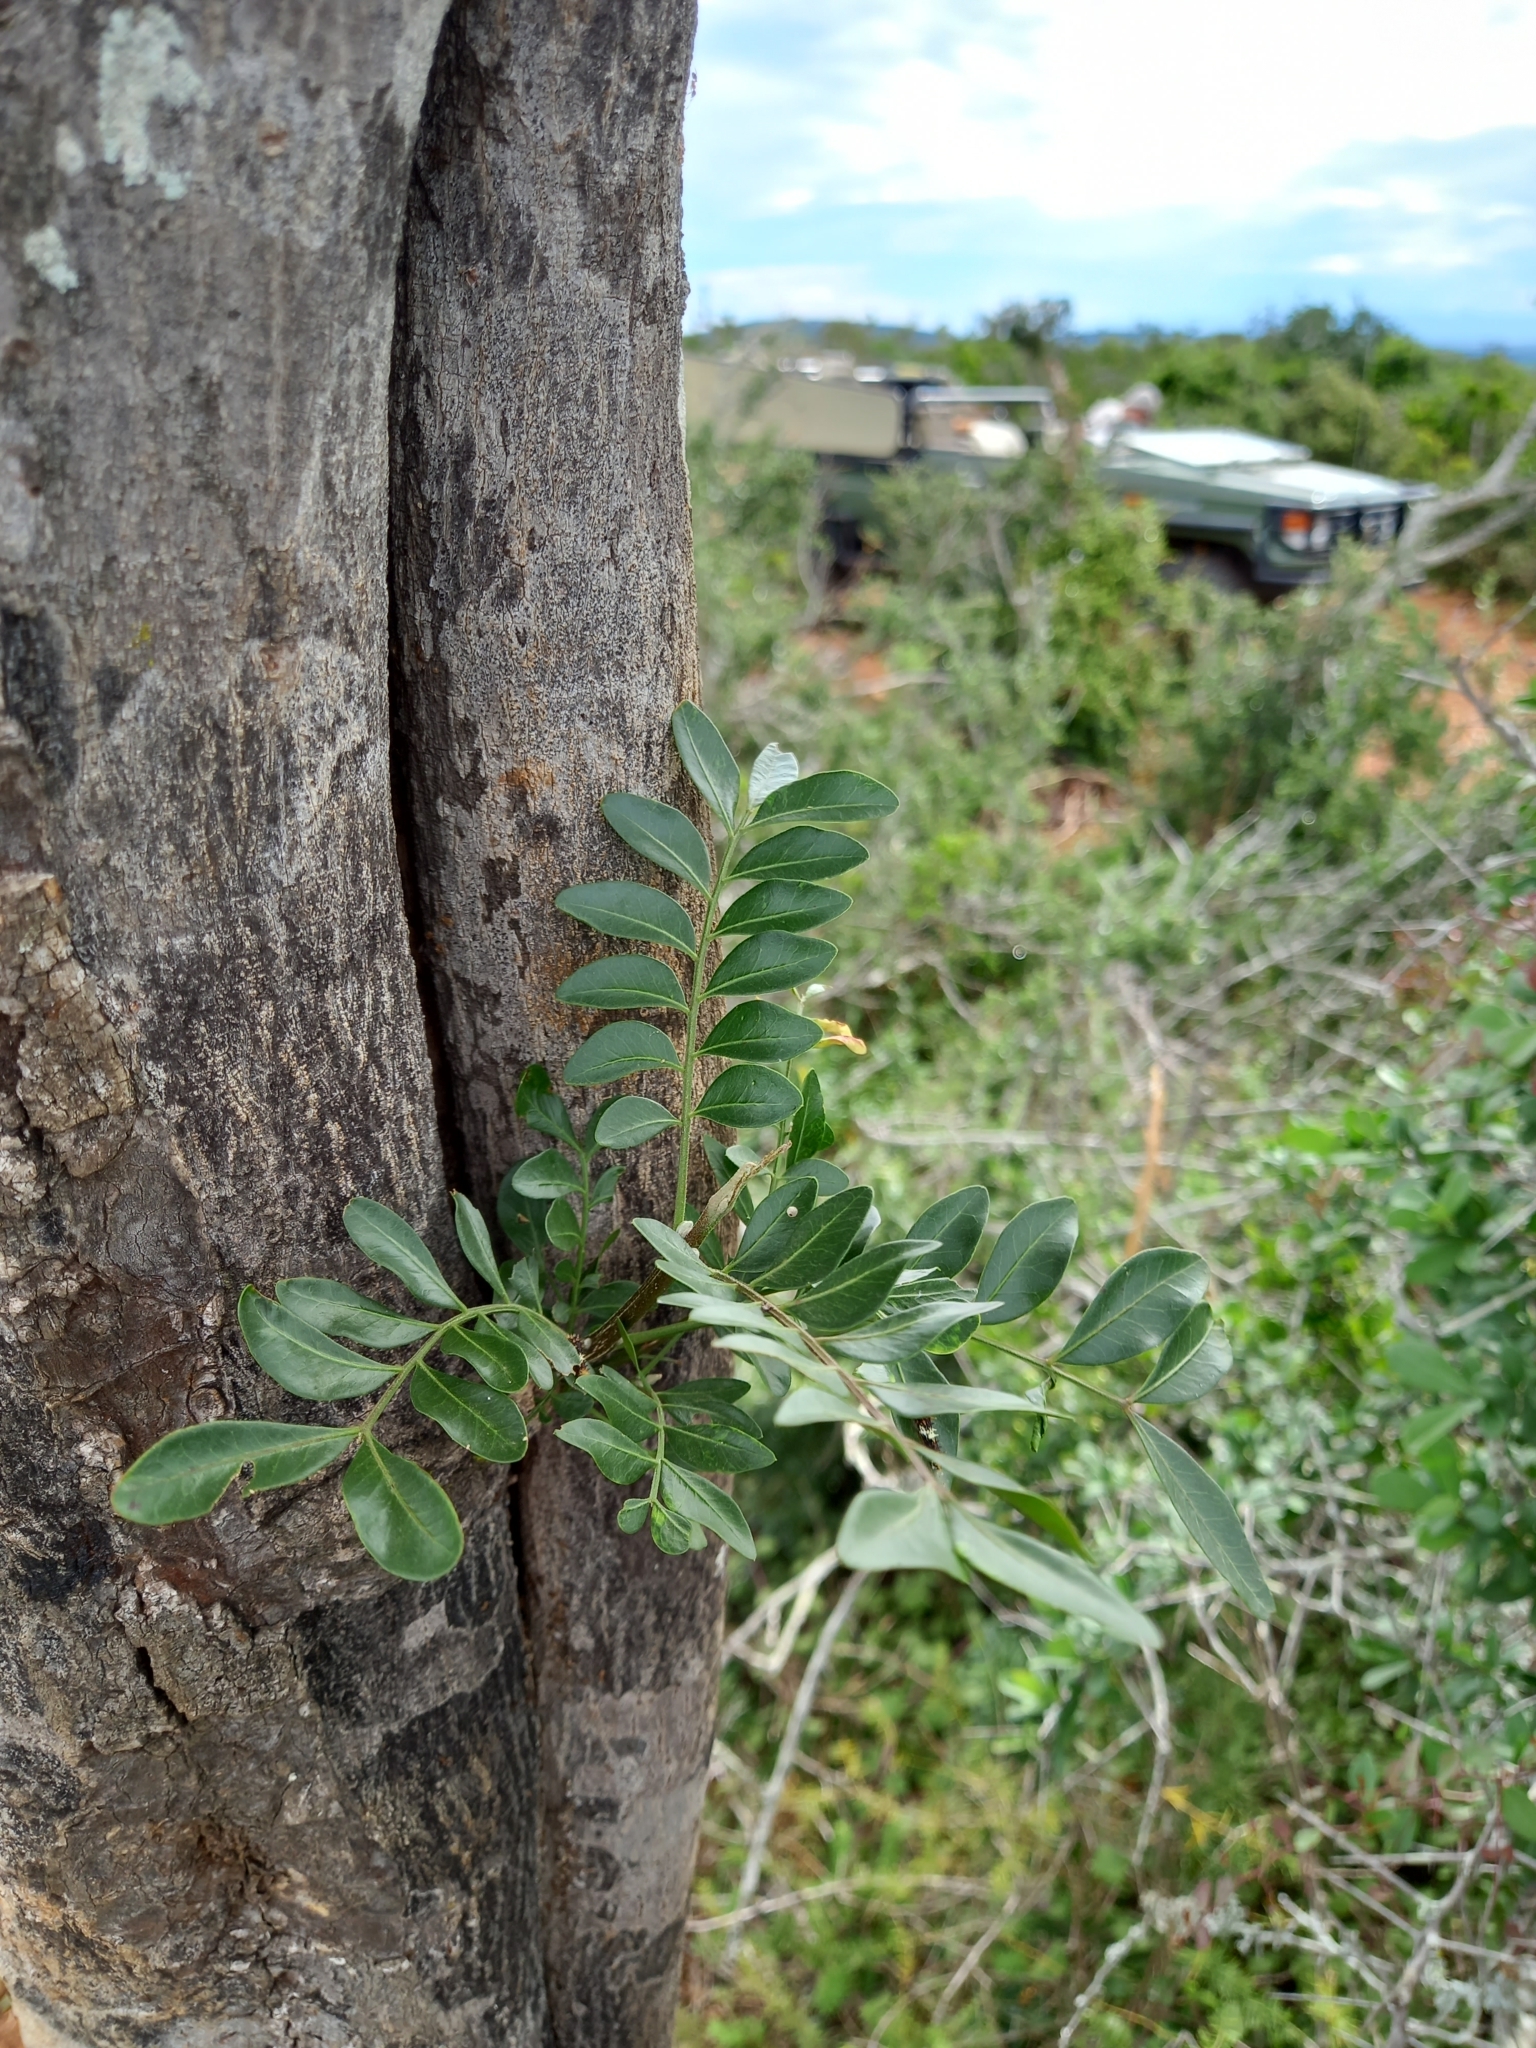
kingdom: Plantae
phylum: Tracheophyta
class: Magnoliopsida
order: Sapindales
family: Rutaceae
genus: Ptaeroxylon
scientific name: Ptaeroxylon obliquum
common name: Sneezewood
